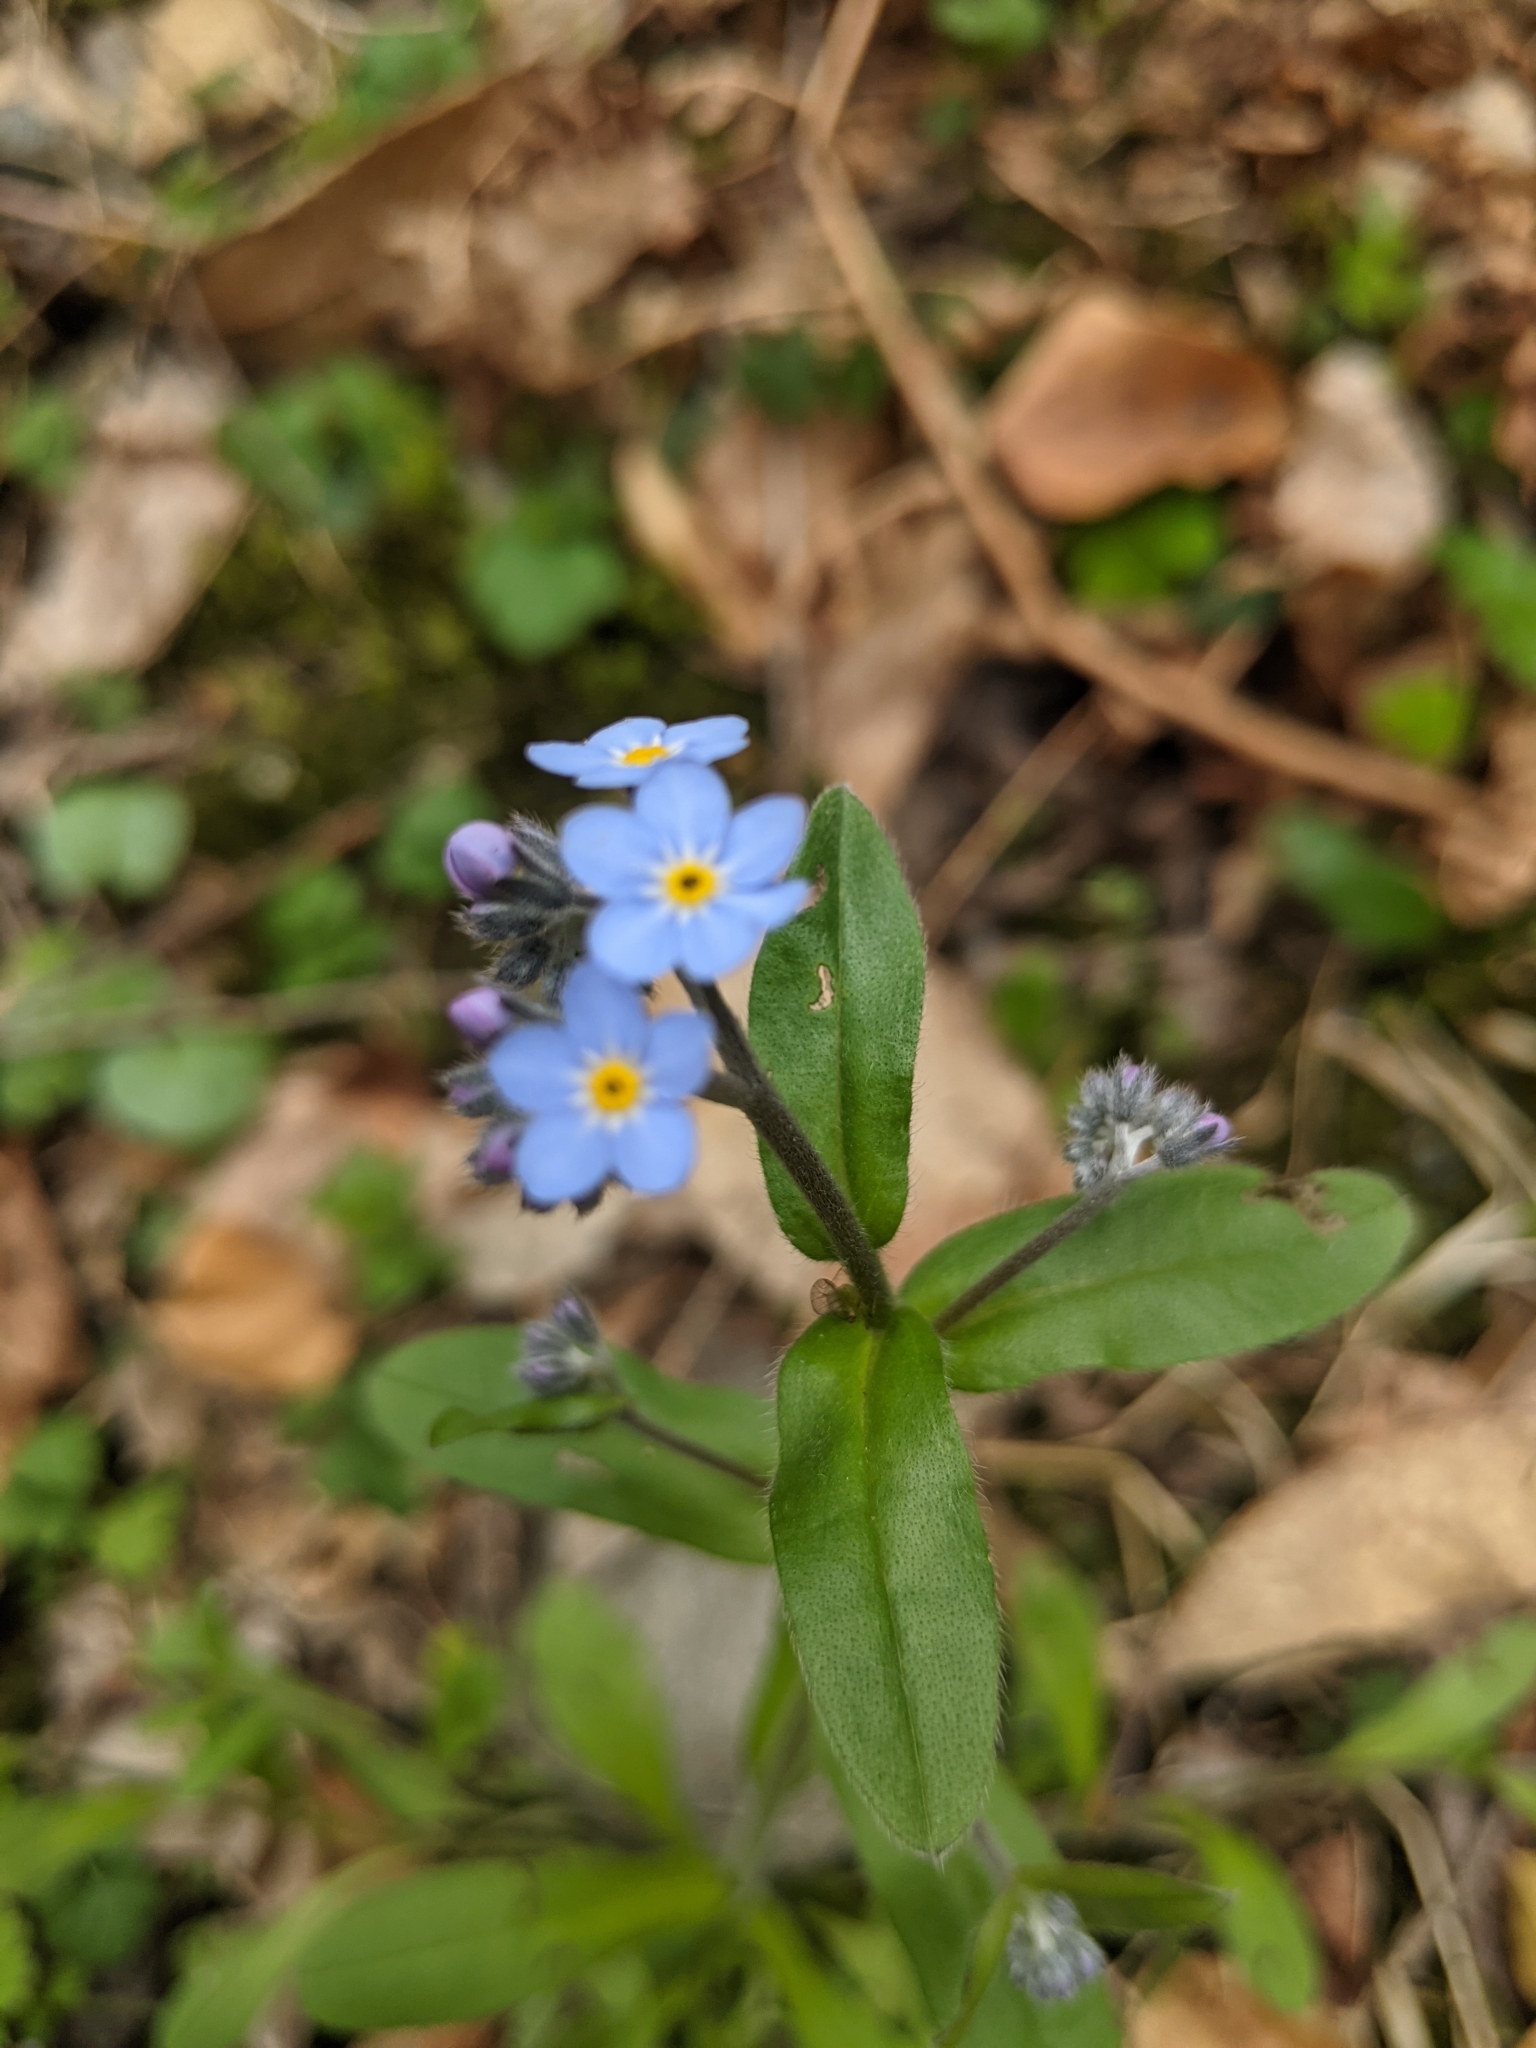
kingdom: Plantae
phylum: Tracheophyta
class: Magnoliopsida
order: Boraginales
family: Boraginaceae
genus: Myosotis
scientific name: Myosotis sylvatica
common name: Wood forget-me-not
